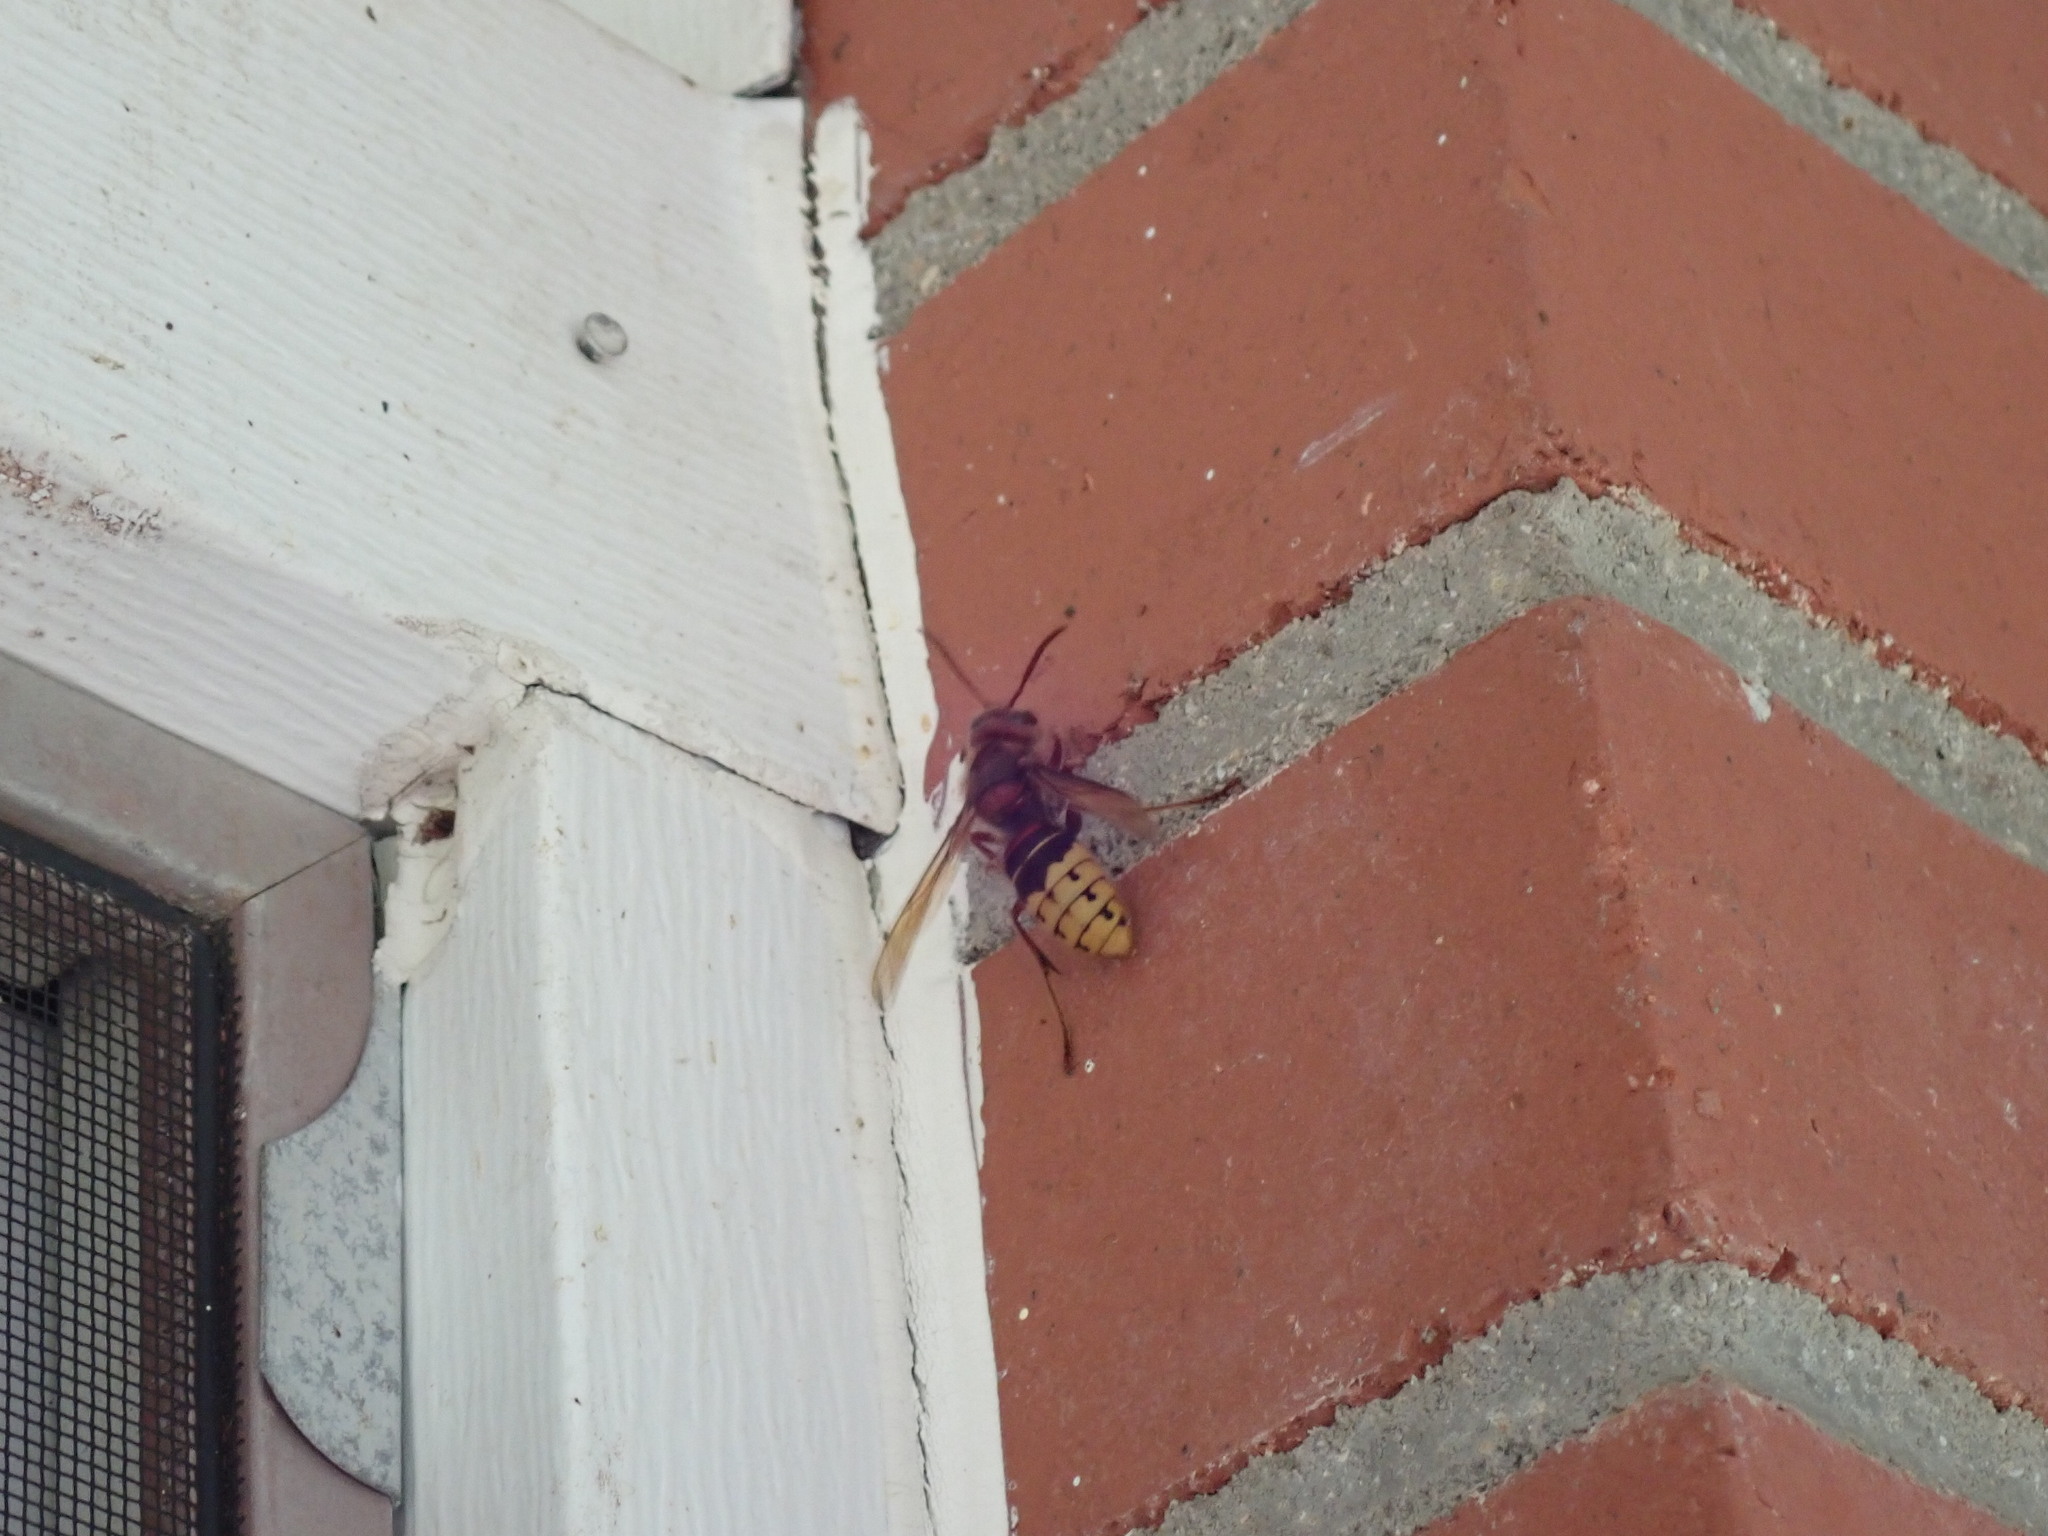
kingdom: Animalia
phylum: Arthropoda
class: Insecta
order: Hymenoptera
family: Vespidae
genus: Vespa
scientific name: Vespa crabro
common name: Hornet
